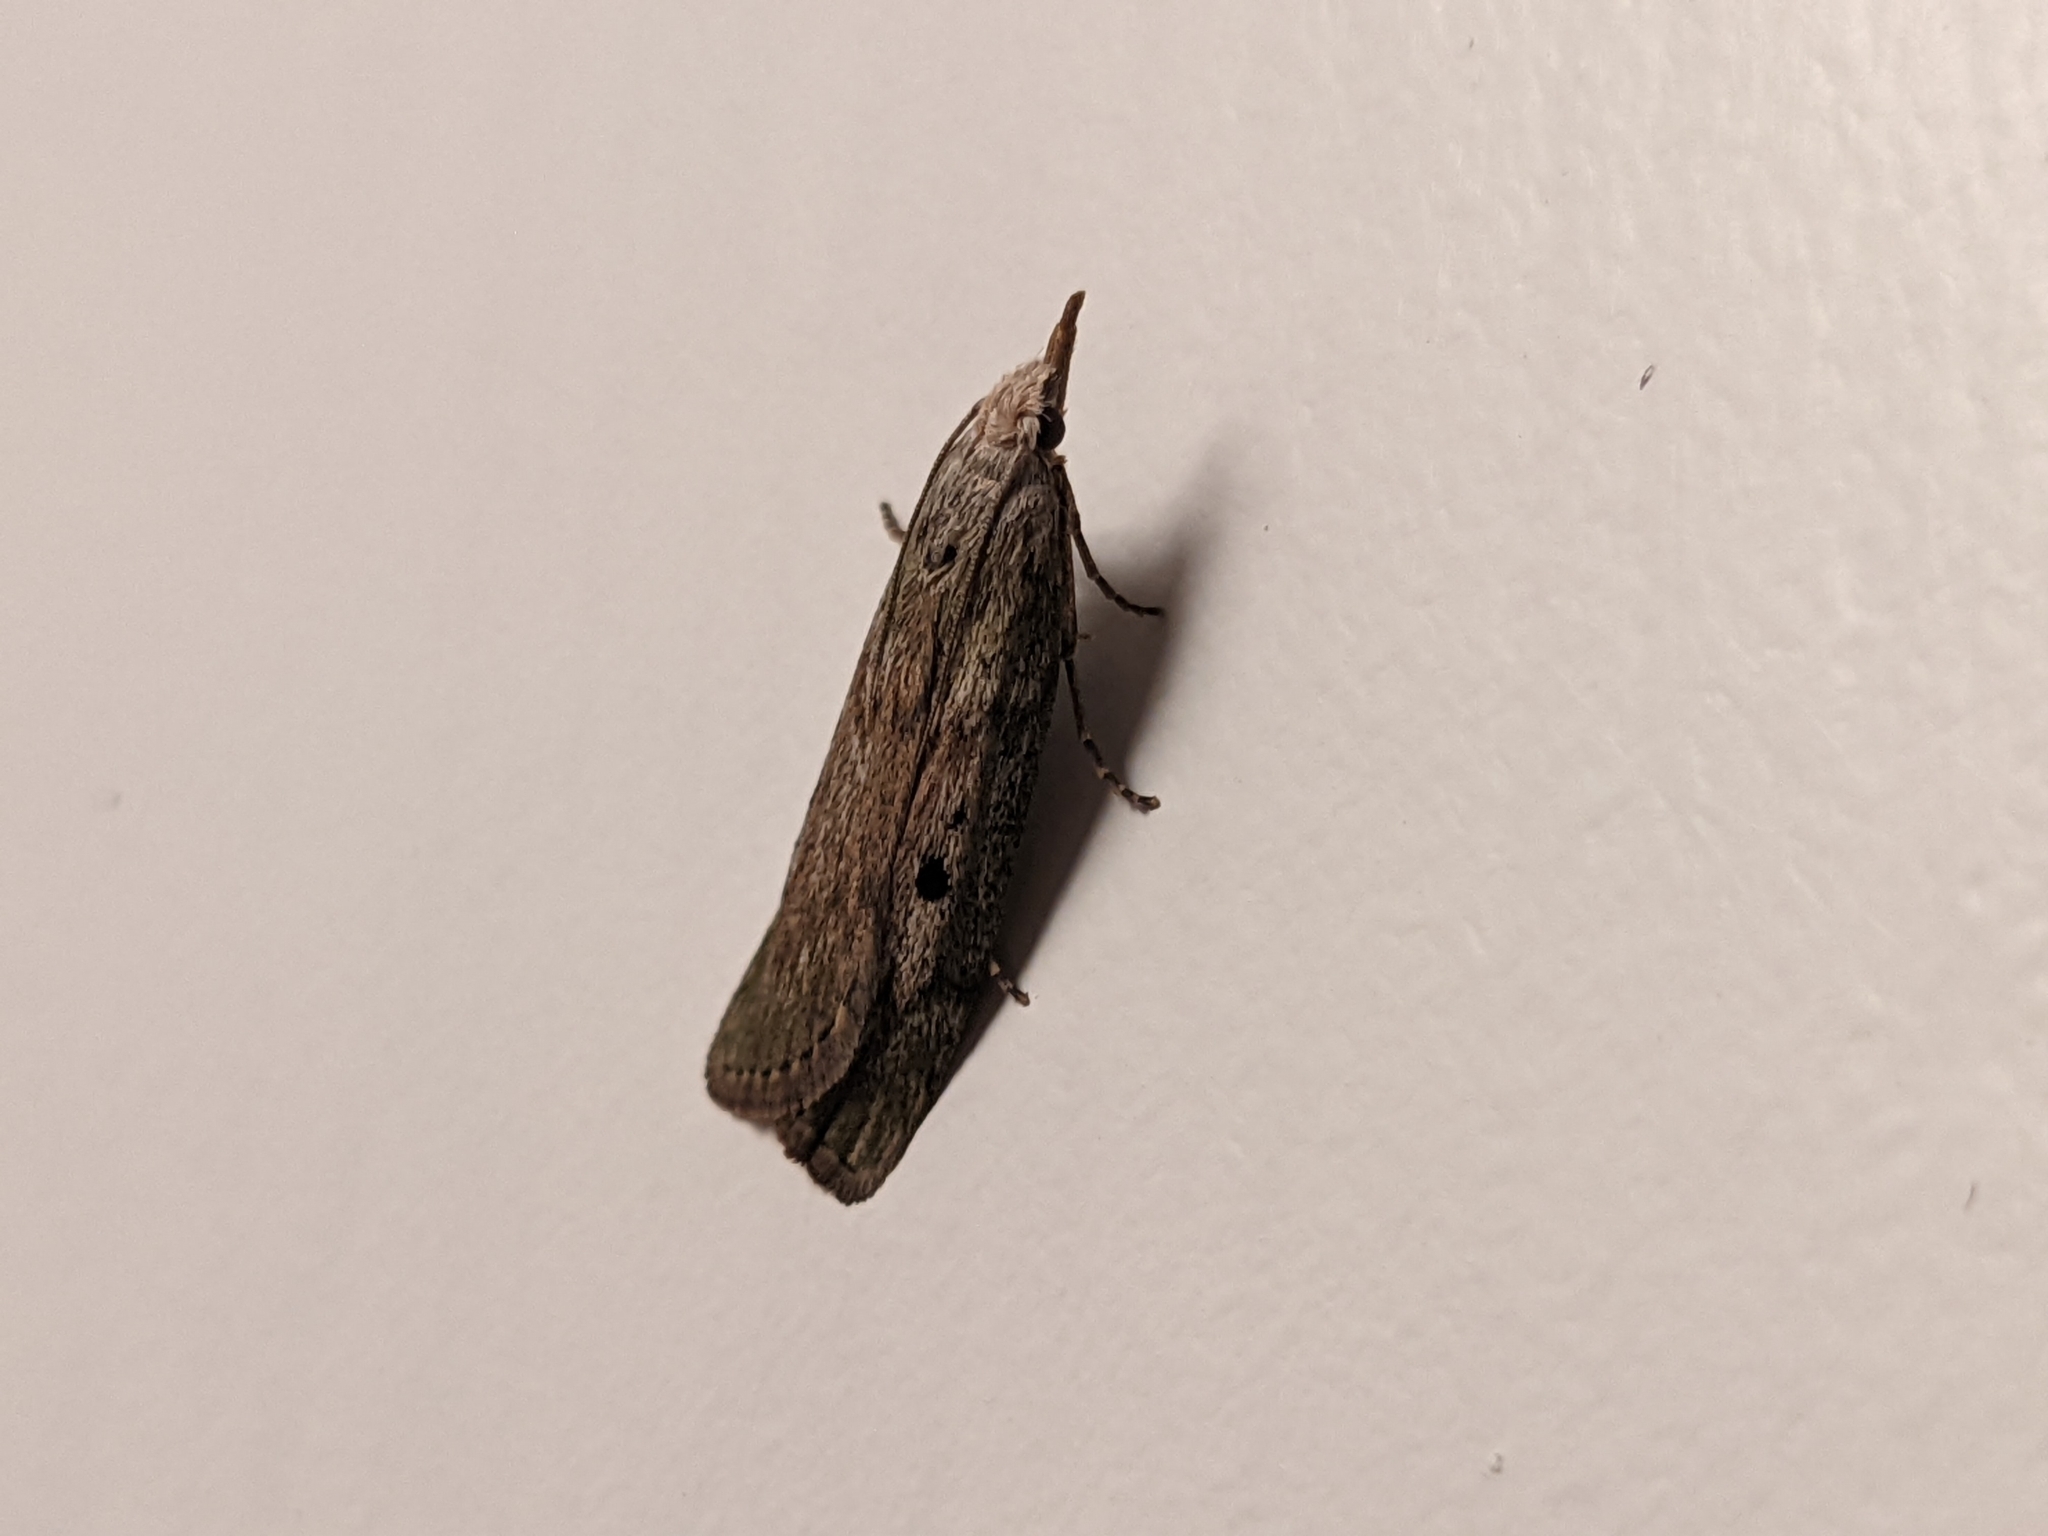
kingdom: Animalia
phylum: Arthropoda
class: Insecta
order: Lepidoptera
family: Pyralidae
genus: Aphomia
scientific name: Aphomia sociella
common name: Bee moth
